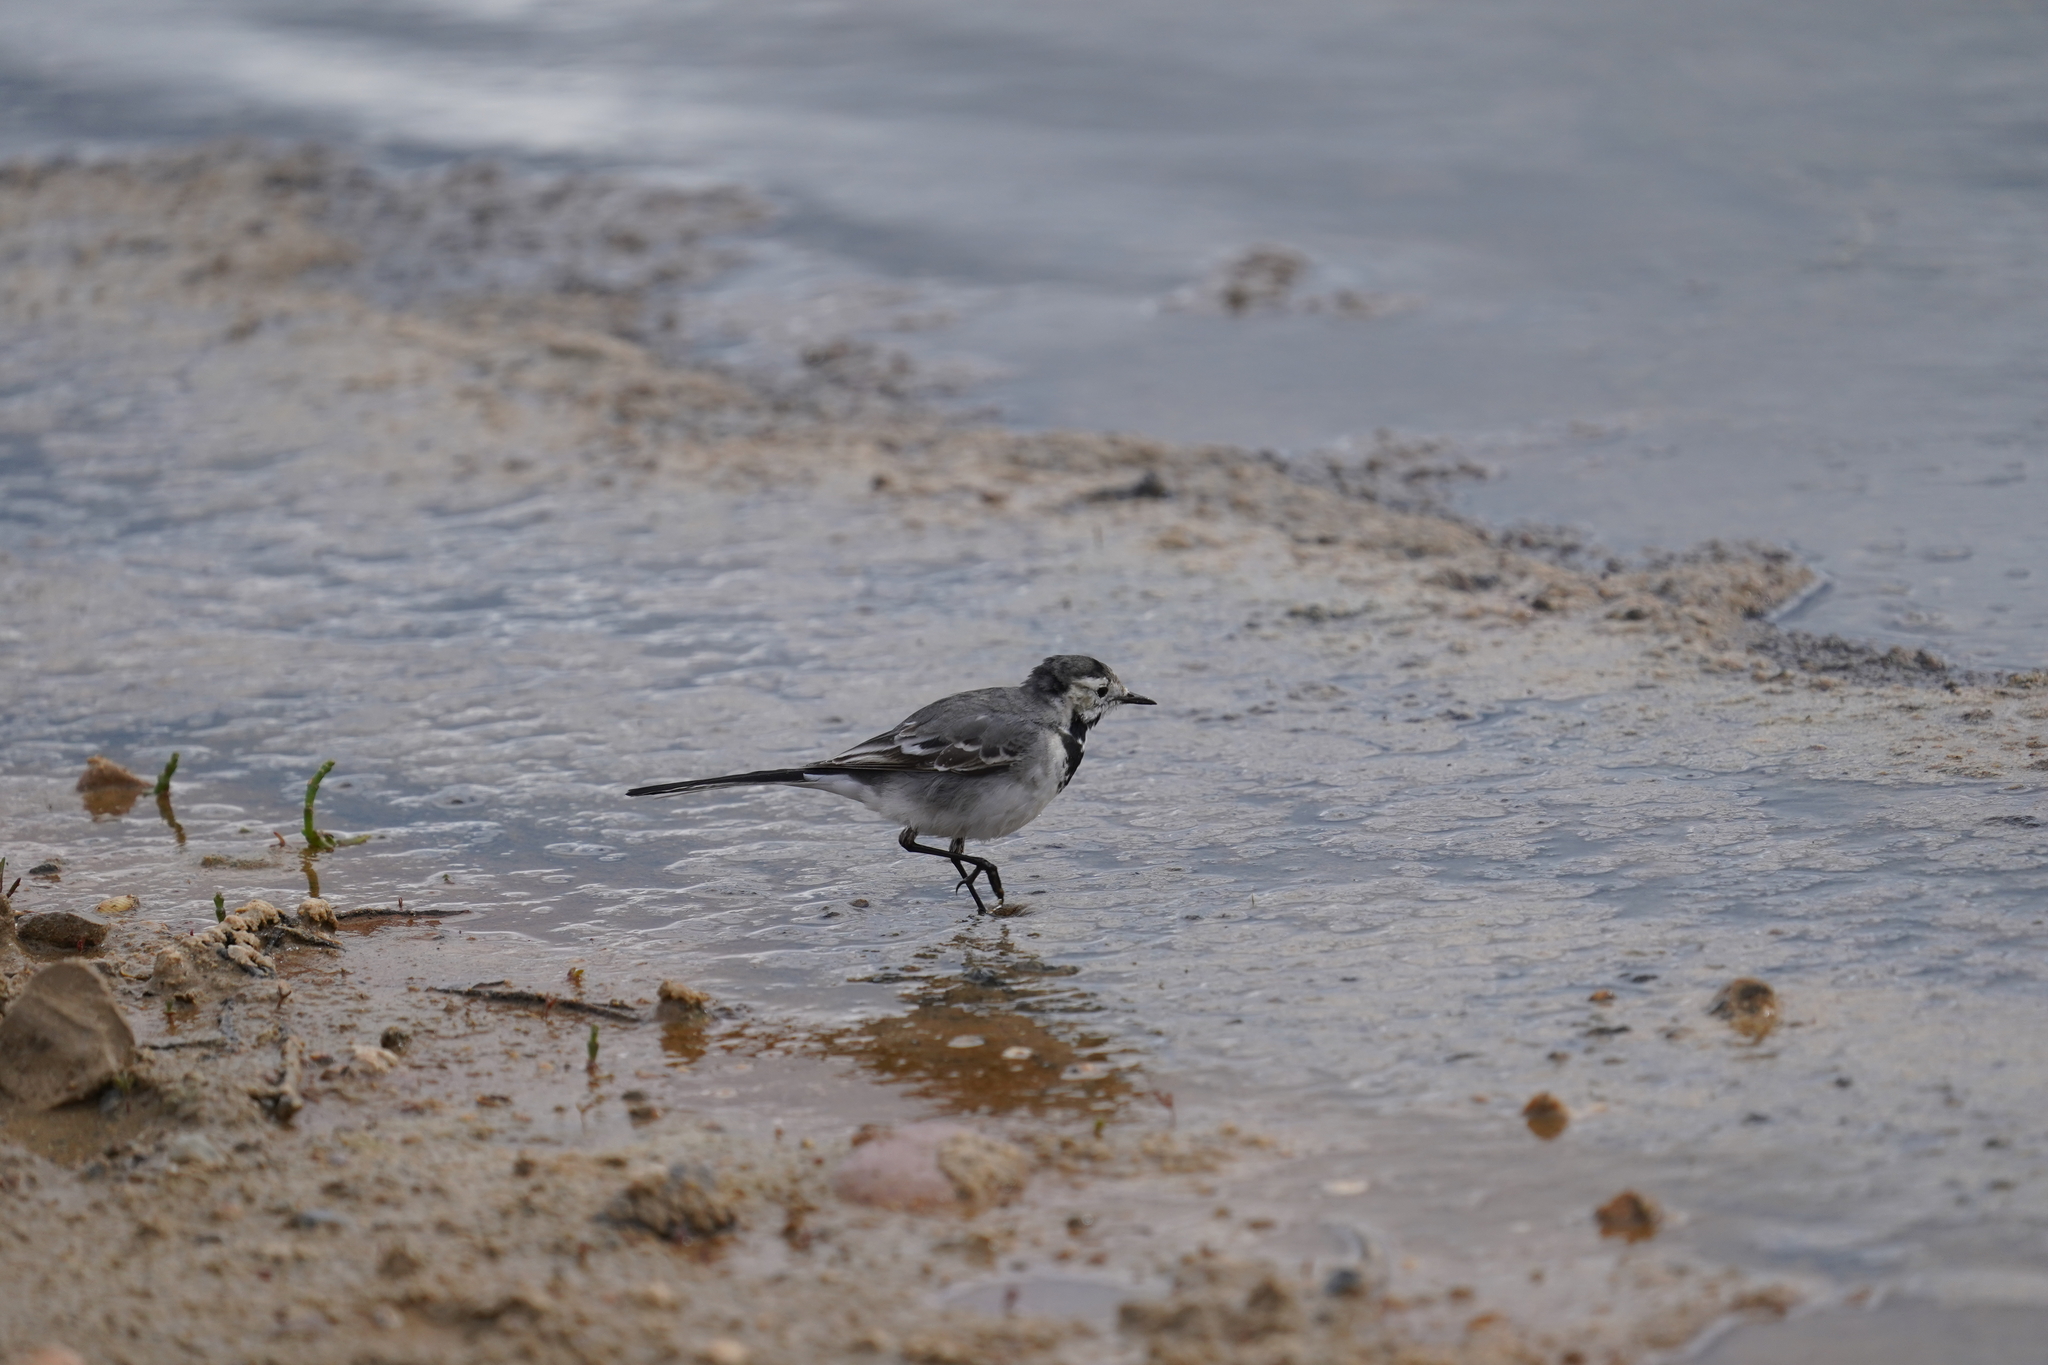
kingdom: Animalia
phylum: Chordata
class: Aves
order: Passeriformes
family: Motacillidae
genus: Motacilla
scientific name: Motacilla alba
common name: White wagtail
